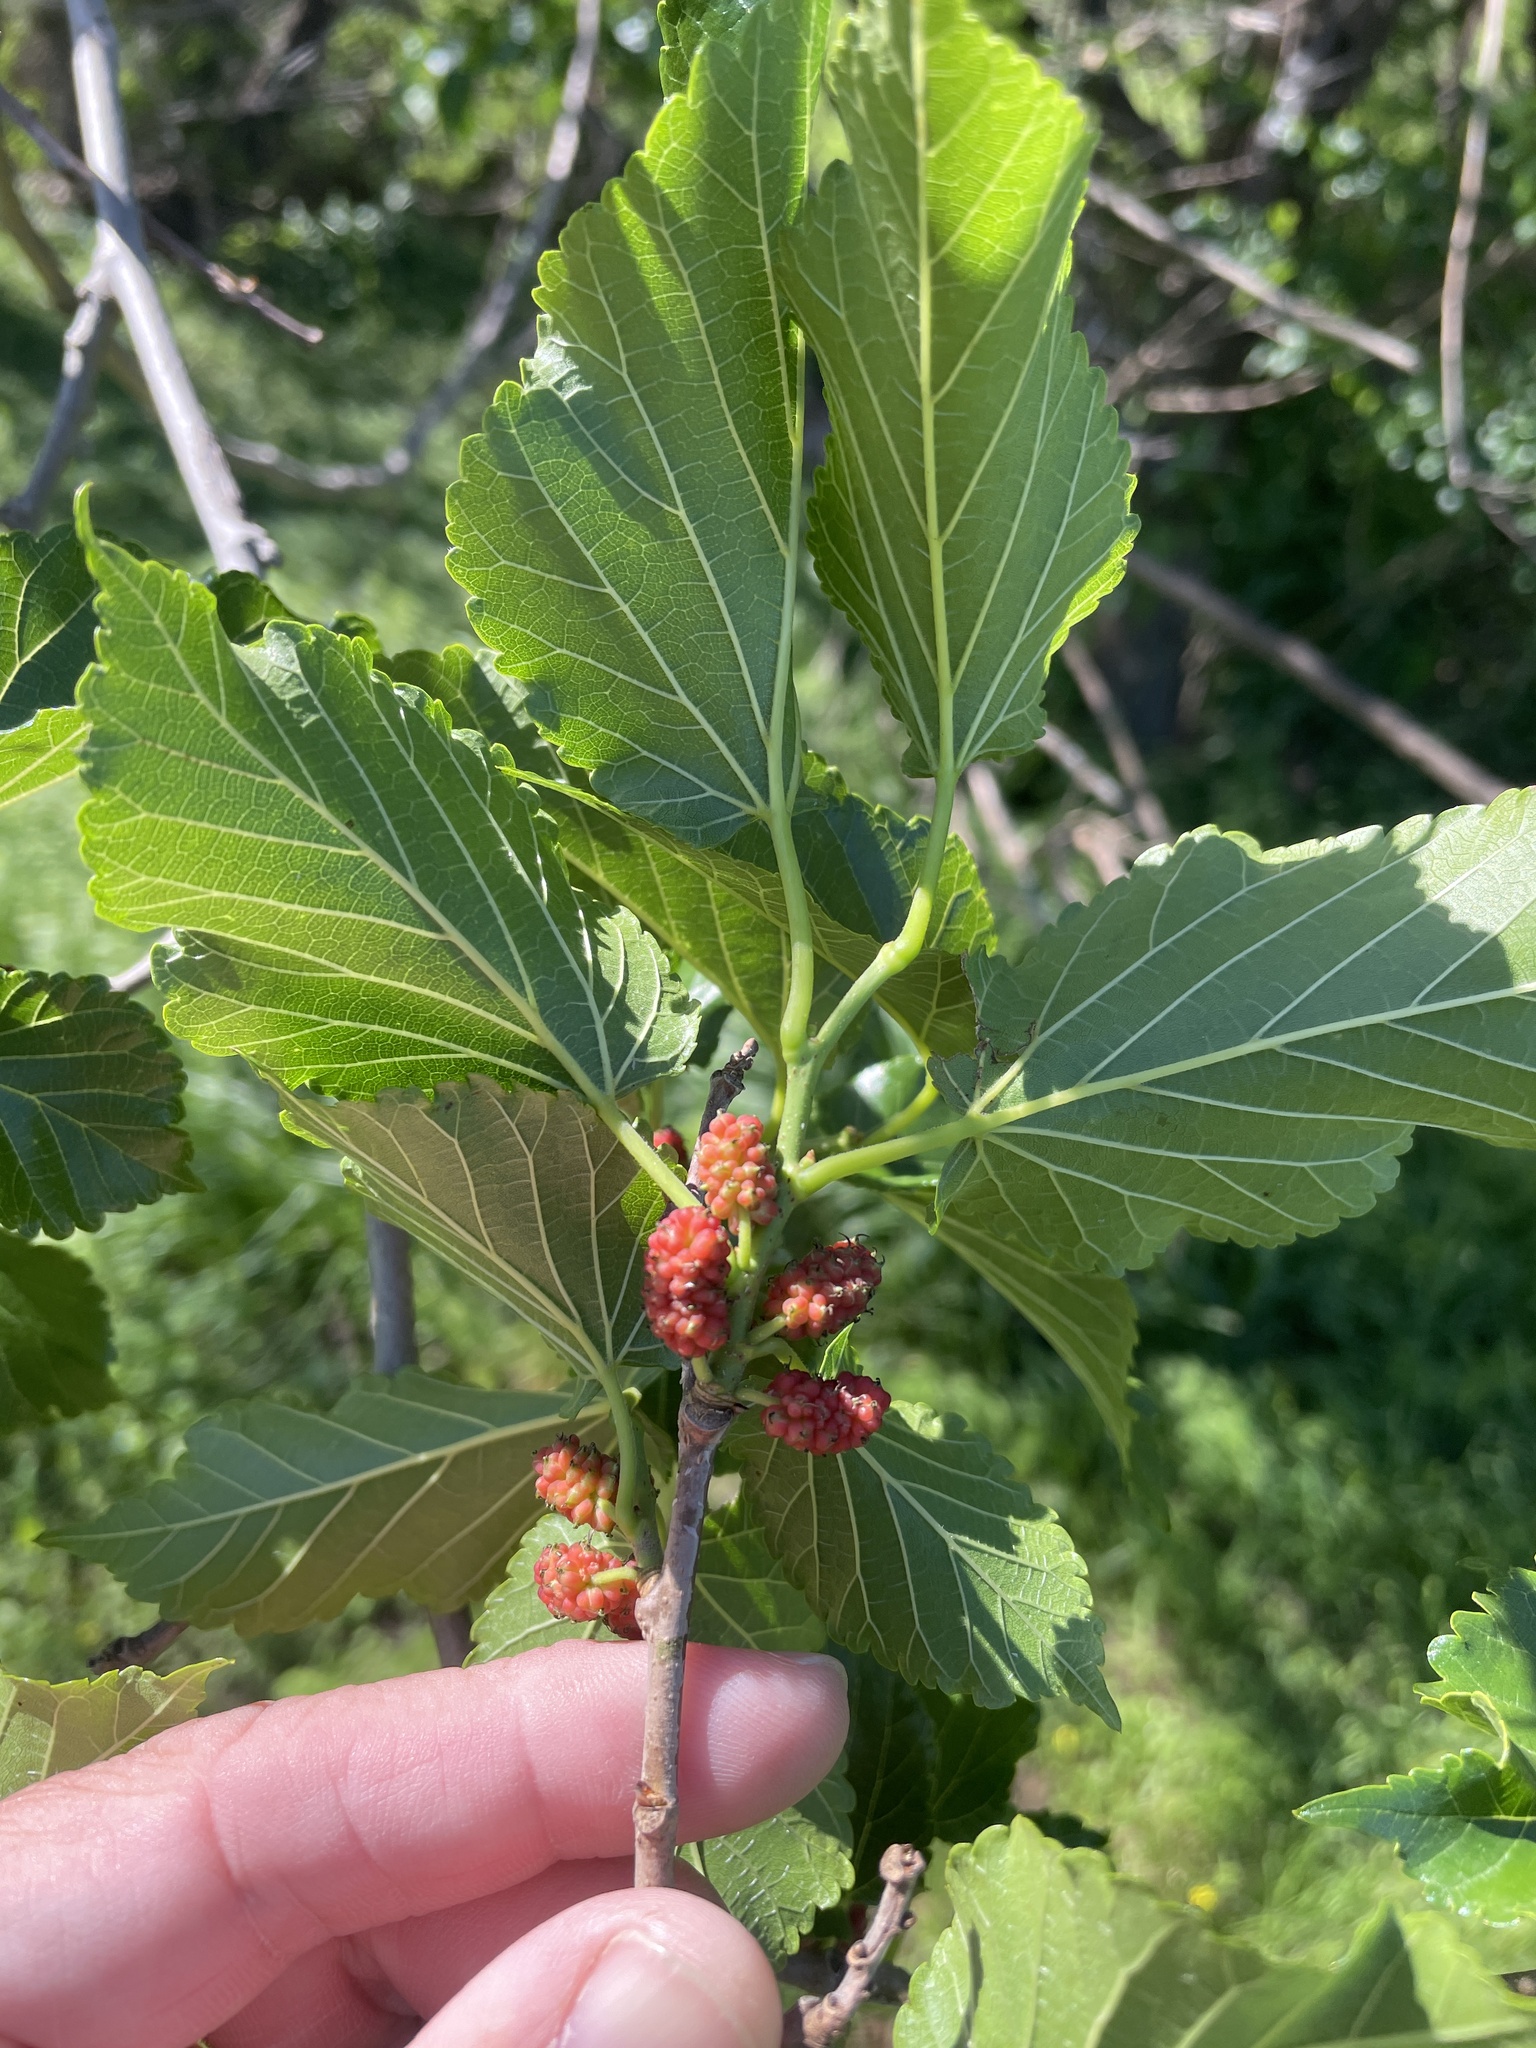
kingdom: Plantae
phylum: Tracheophyta
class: Magnoliopsida
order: Rosales
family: Moraceae
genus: Morus
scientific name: Morus rubra
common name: Red mulberry
